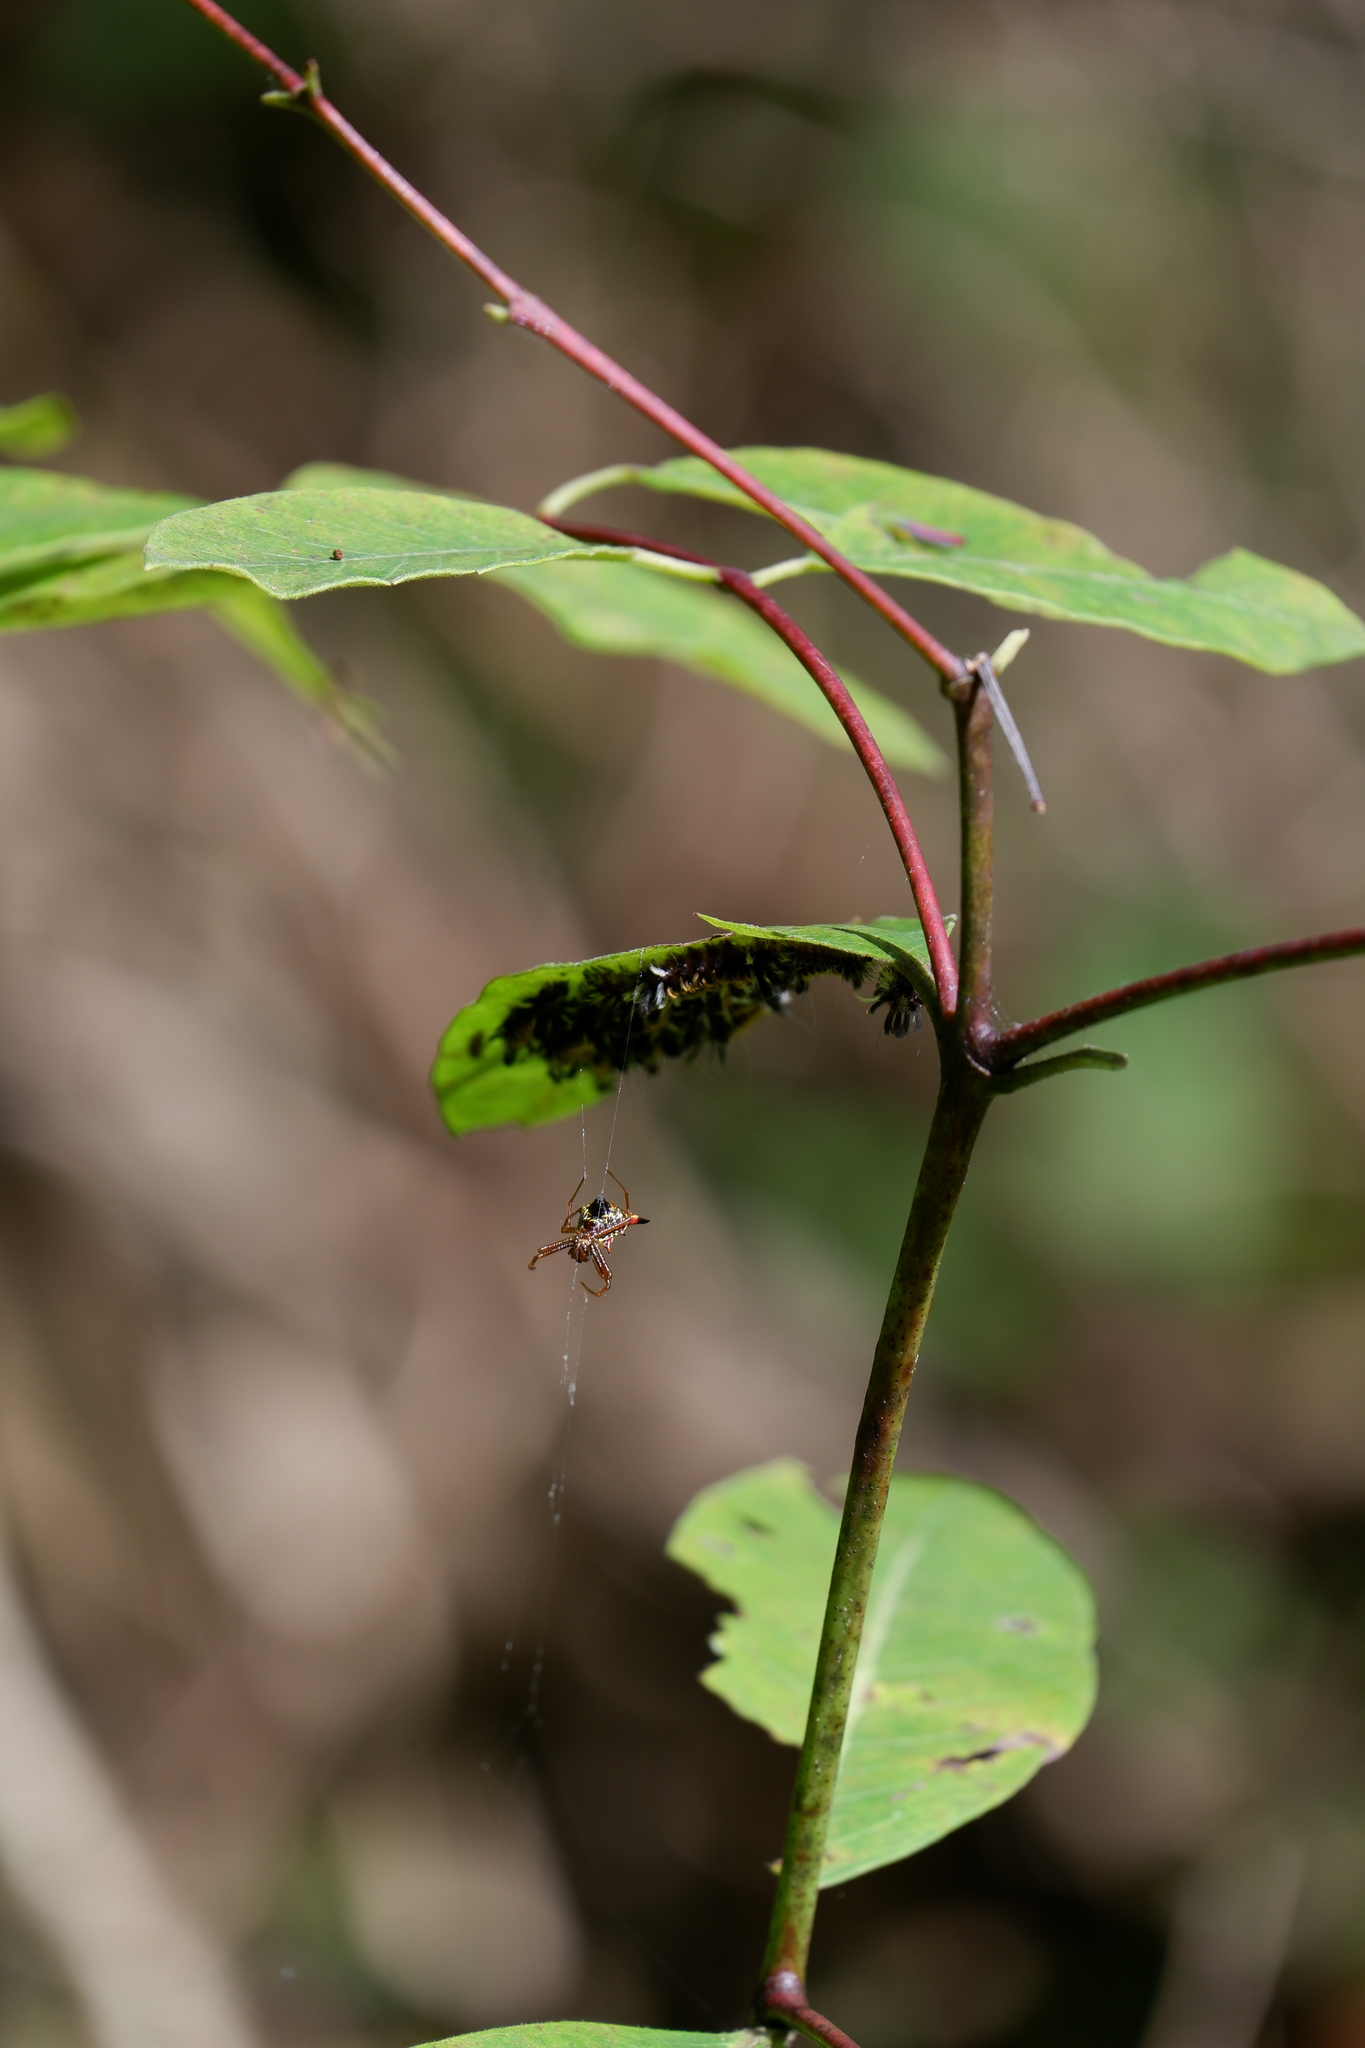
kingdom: Animalia
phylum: Arthropoda
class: Arachnida
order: Araneae
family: Araneidae
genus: Micrathena
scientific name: Micrathena sagittata
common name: Orb weavers
